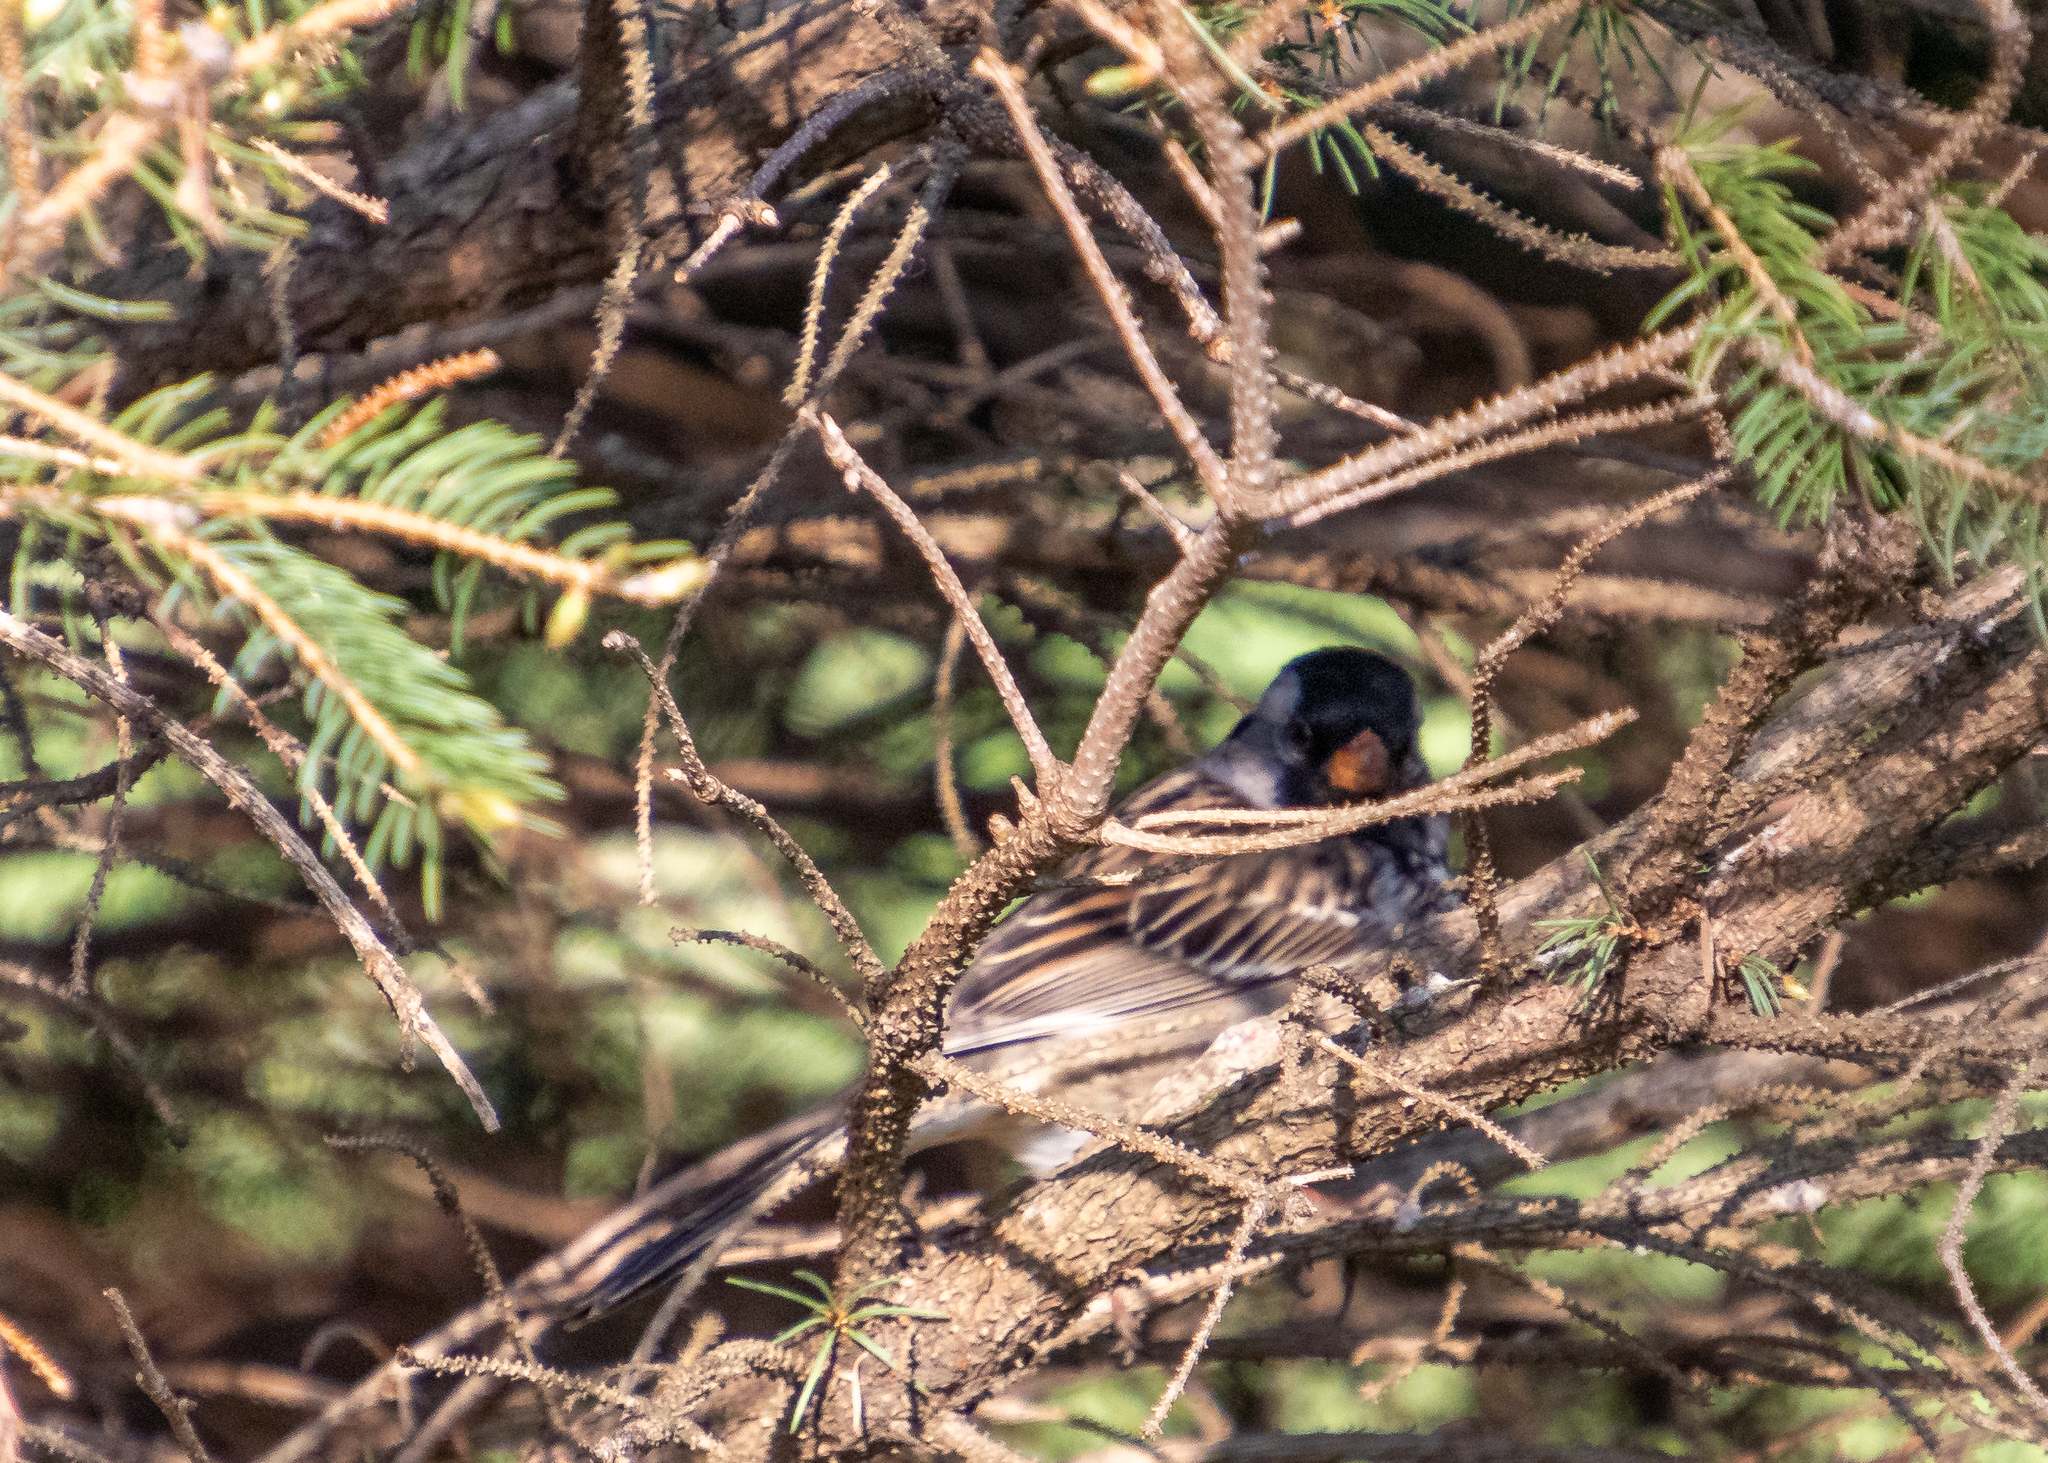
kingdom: Animalia
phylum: Chordata
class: Aves
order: Passeriformes
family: Passerellidae
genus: Zonotrichia
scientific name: Zonotrichia querula
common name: Harris's sparrow
